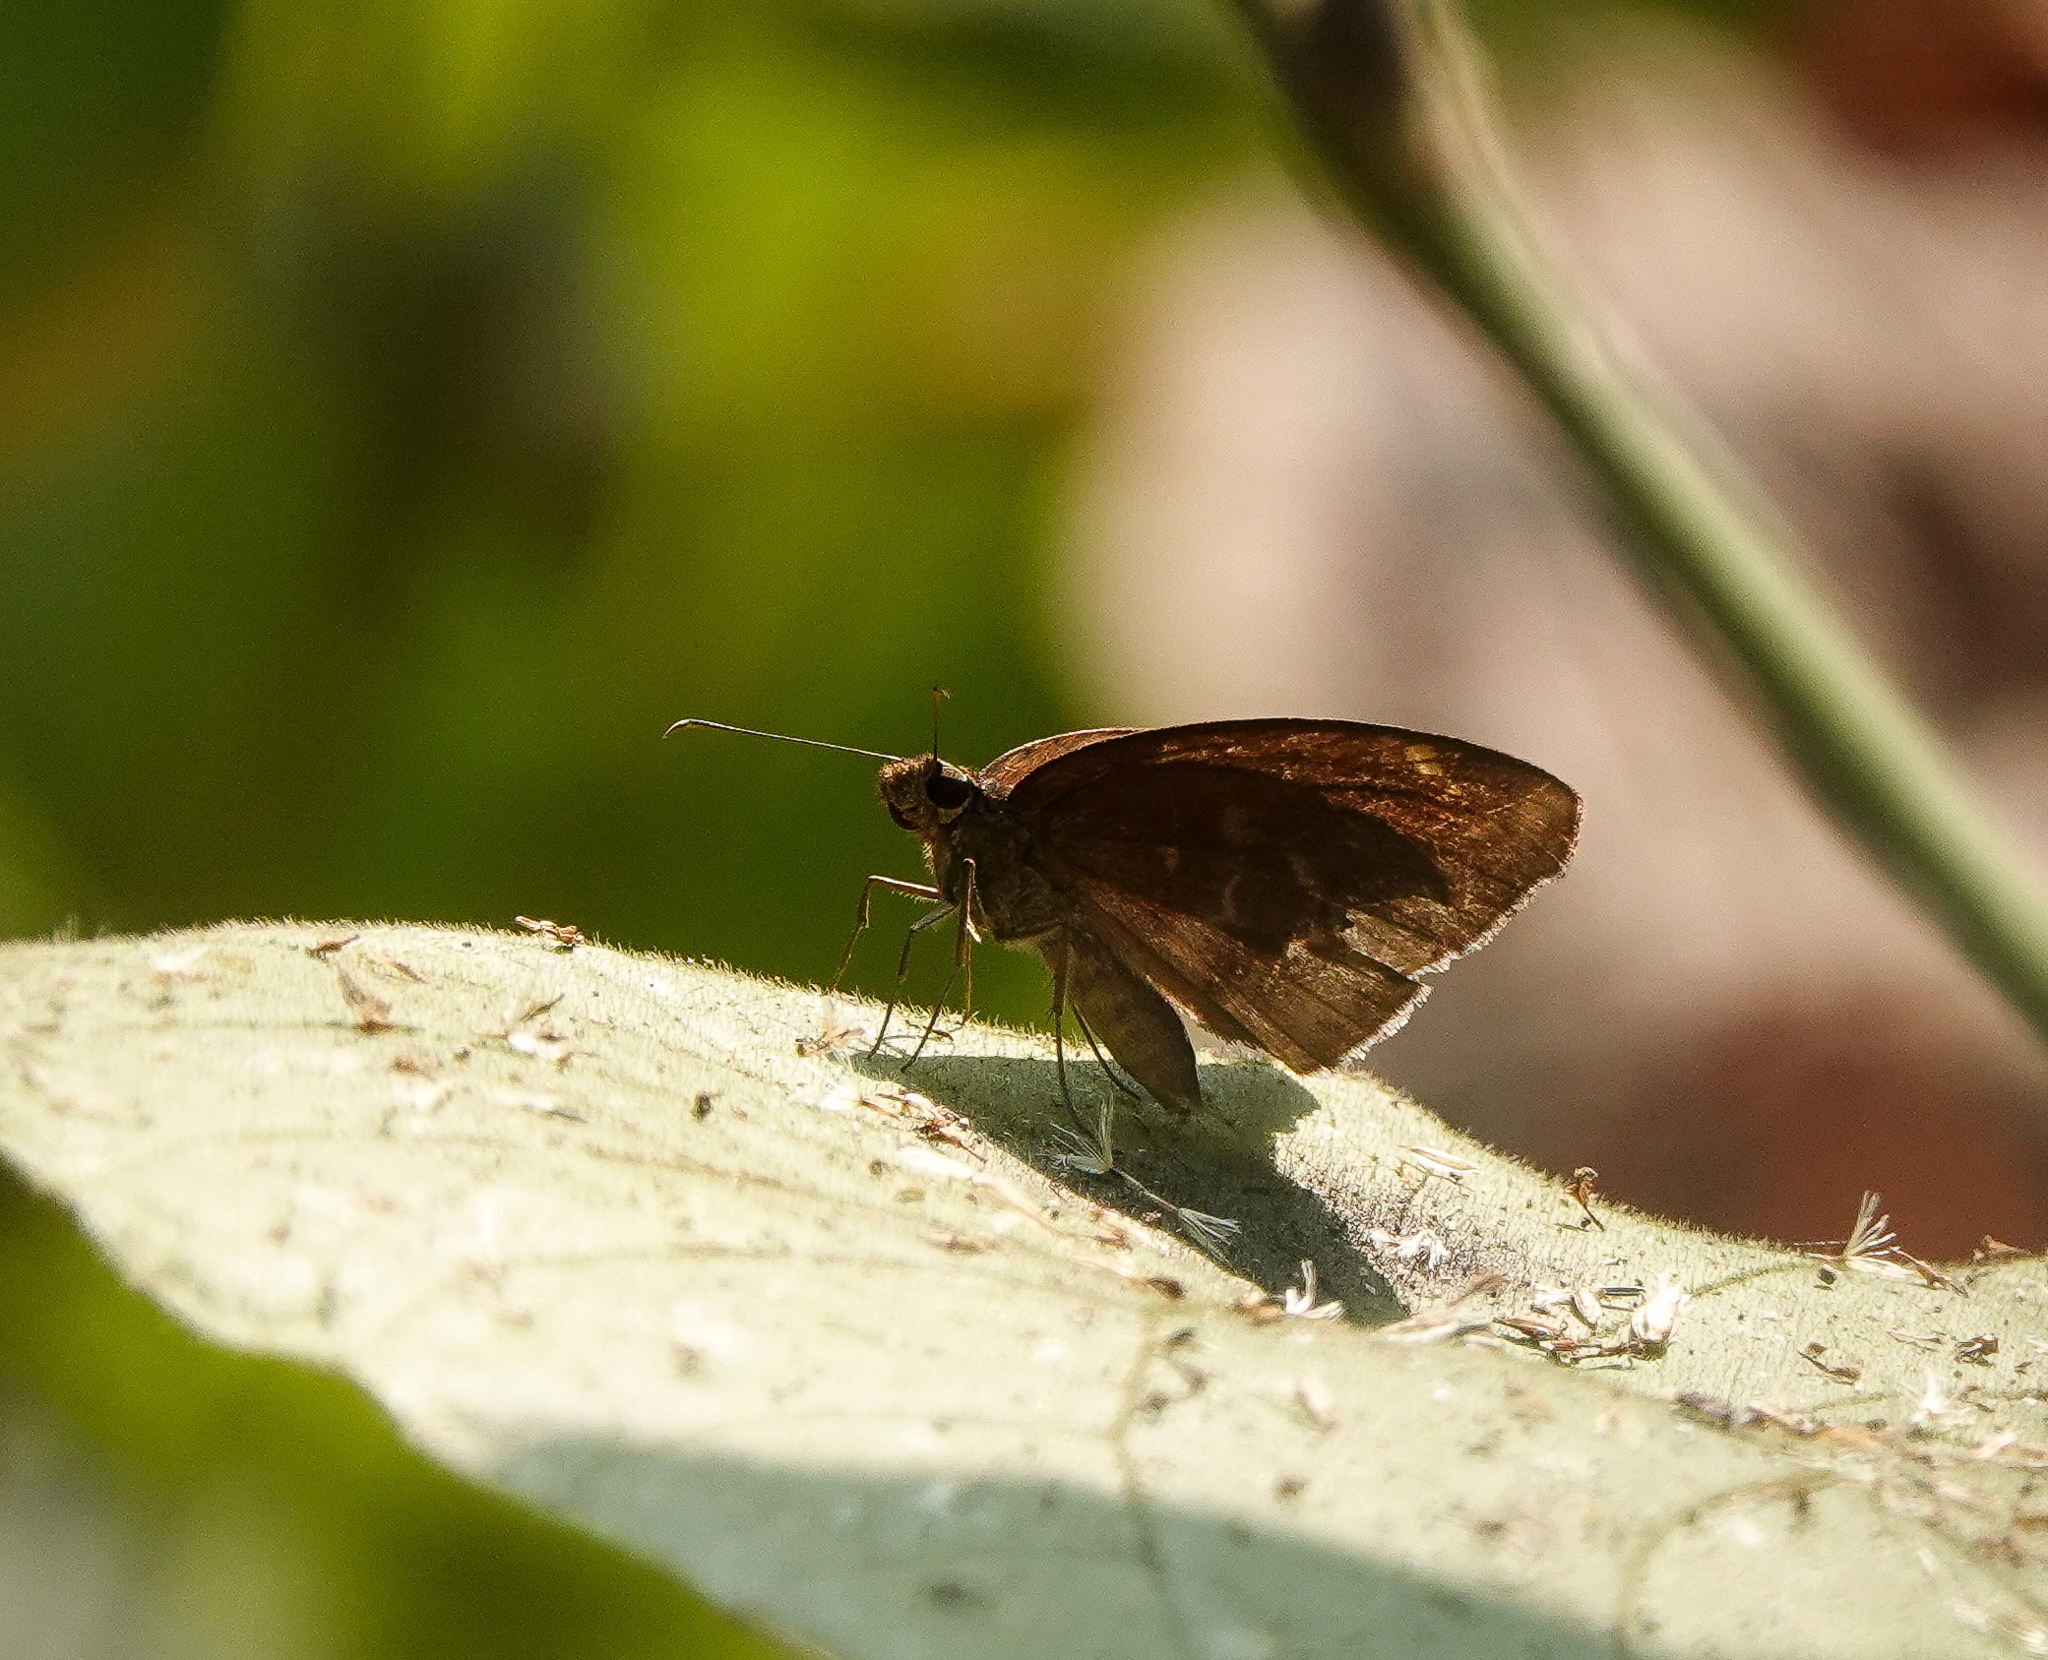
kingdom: Animalia
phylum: Arthropoda
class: Insecta
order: Lepidoptera
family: Hesperiidae
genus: Psolos
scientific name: Psolos fuligo
